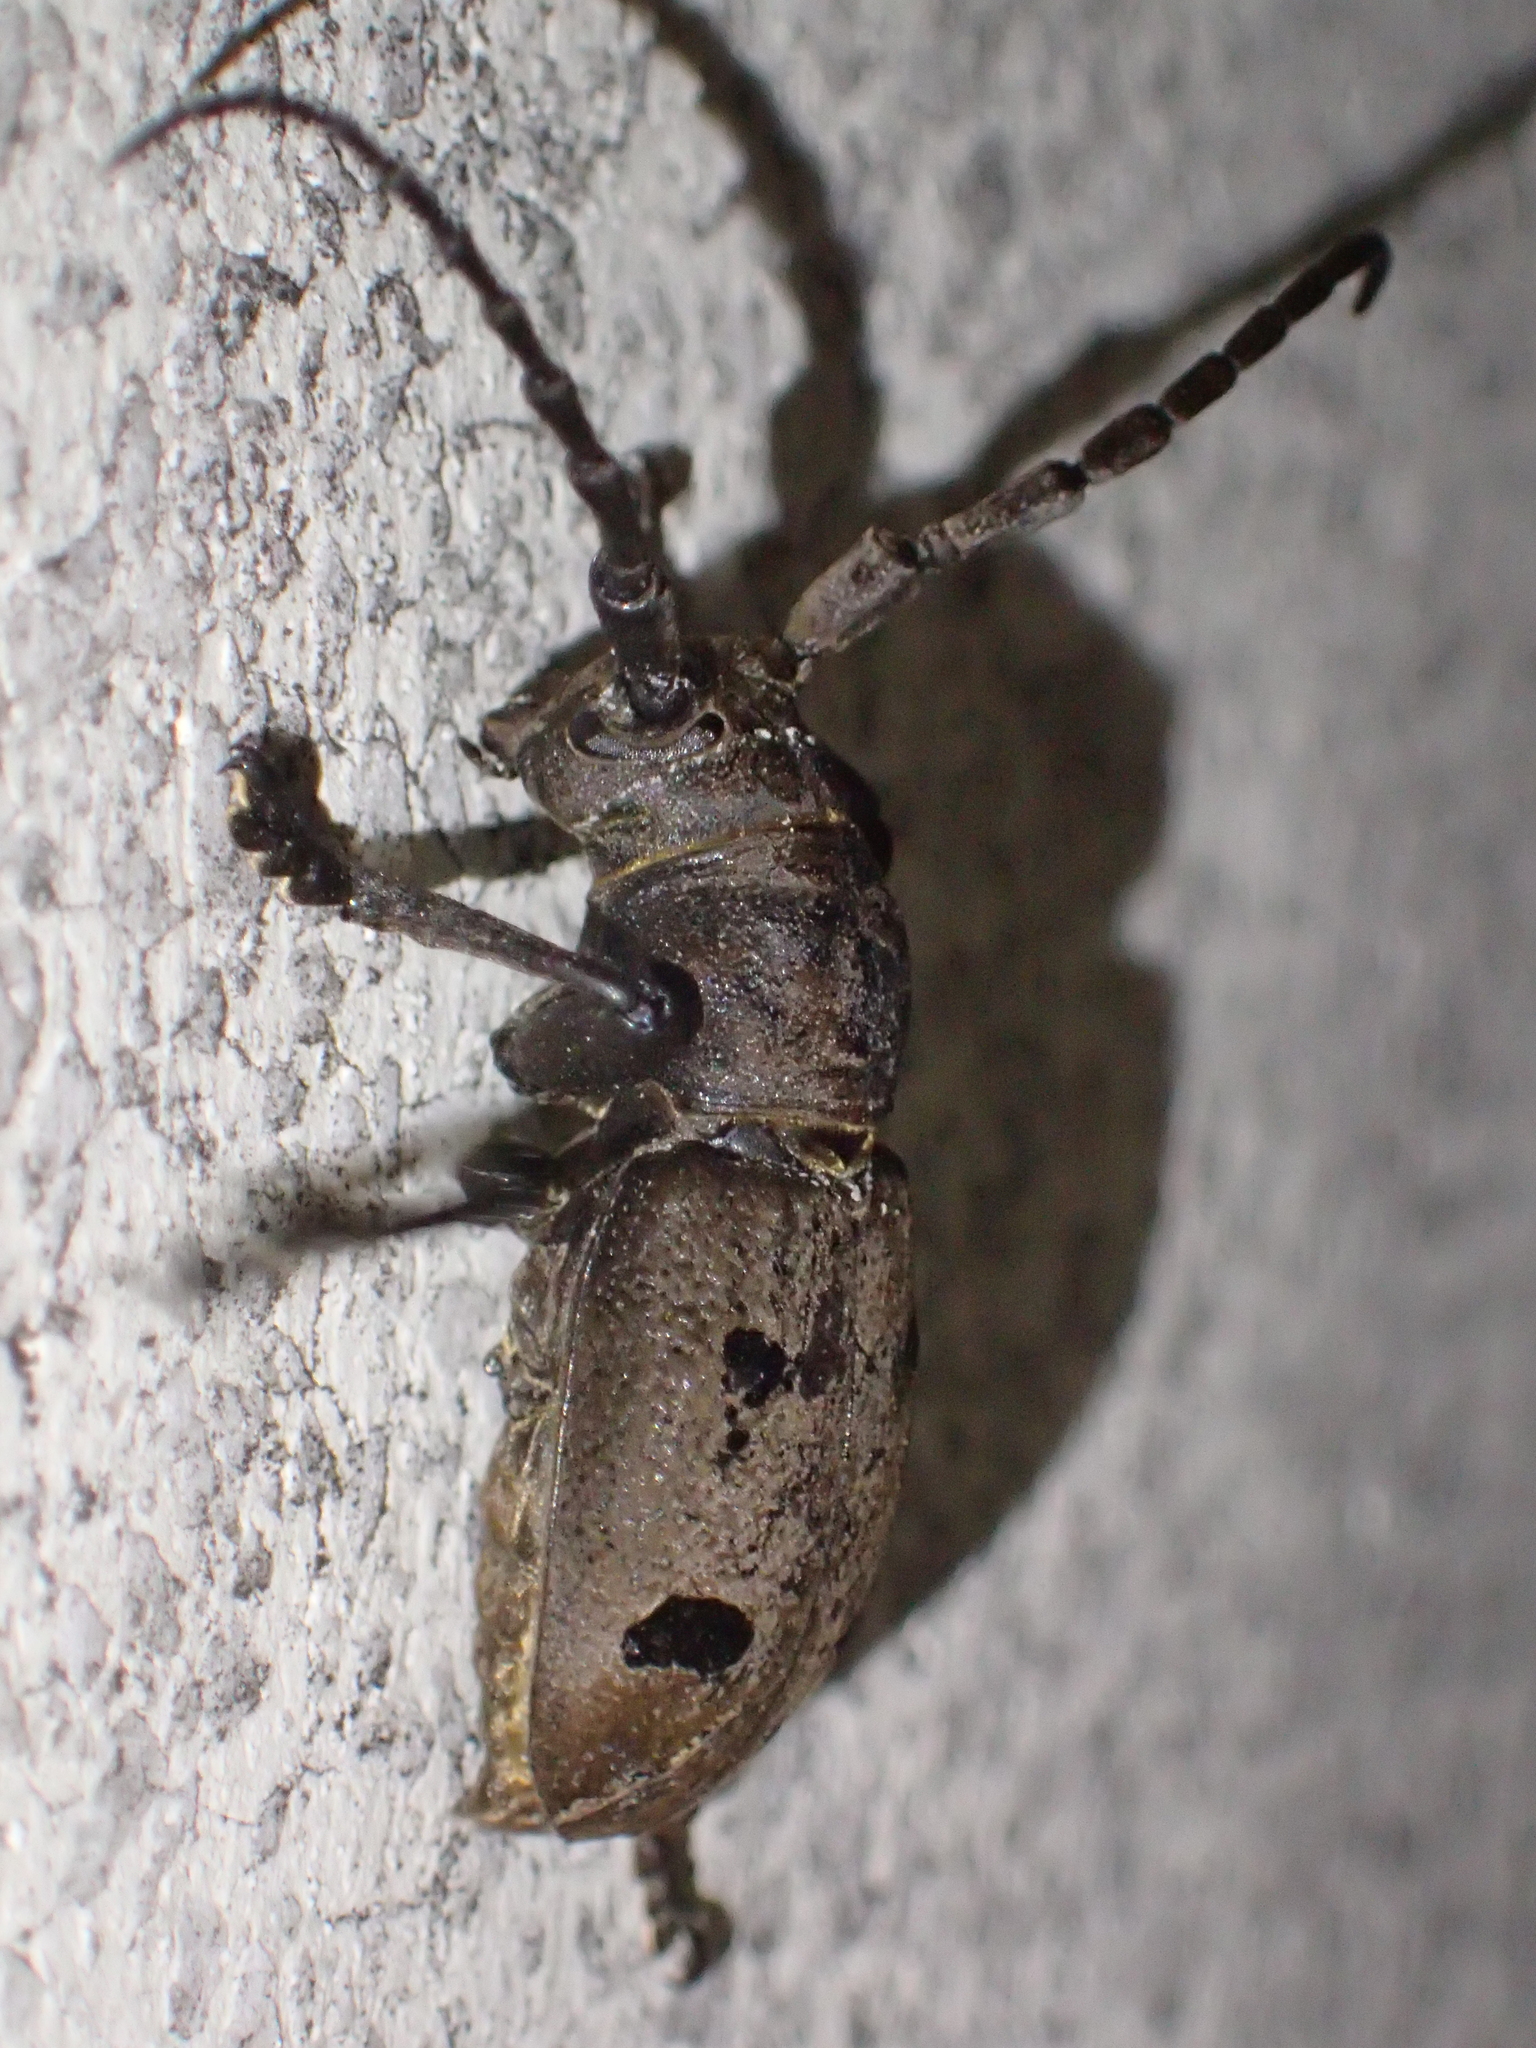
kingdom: Animalia
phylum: Arthropoda
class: Insecta
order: Coleoptera
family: Cerambycidae
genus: Herophila
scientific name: Herophila tristis
